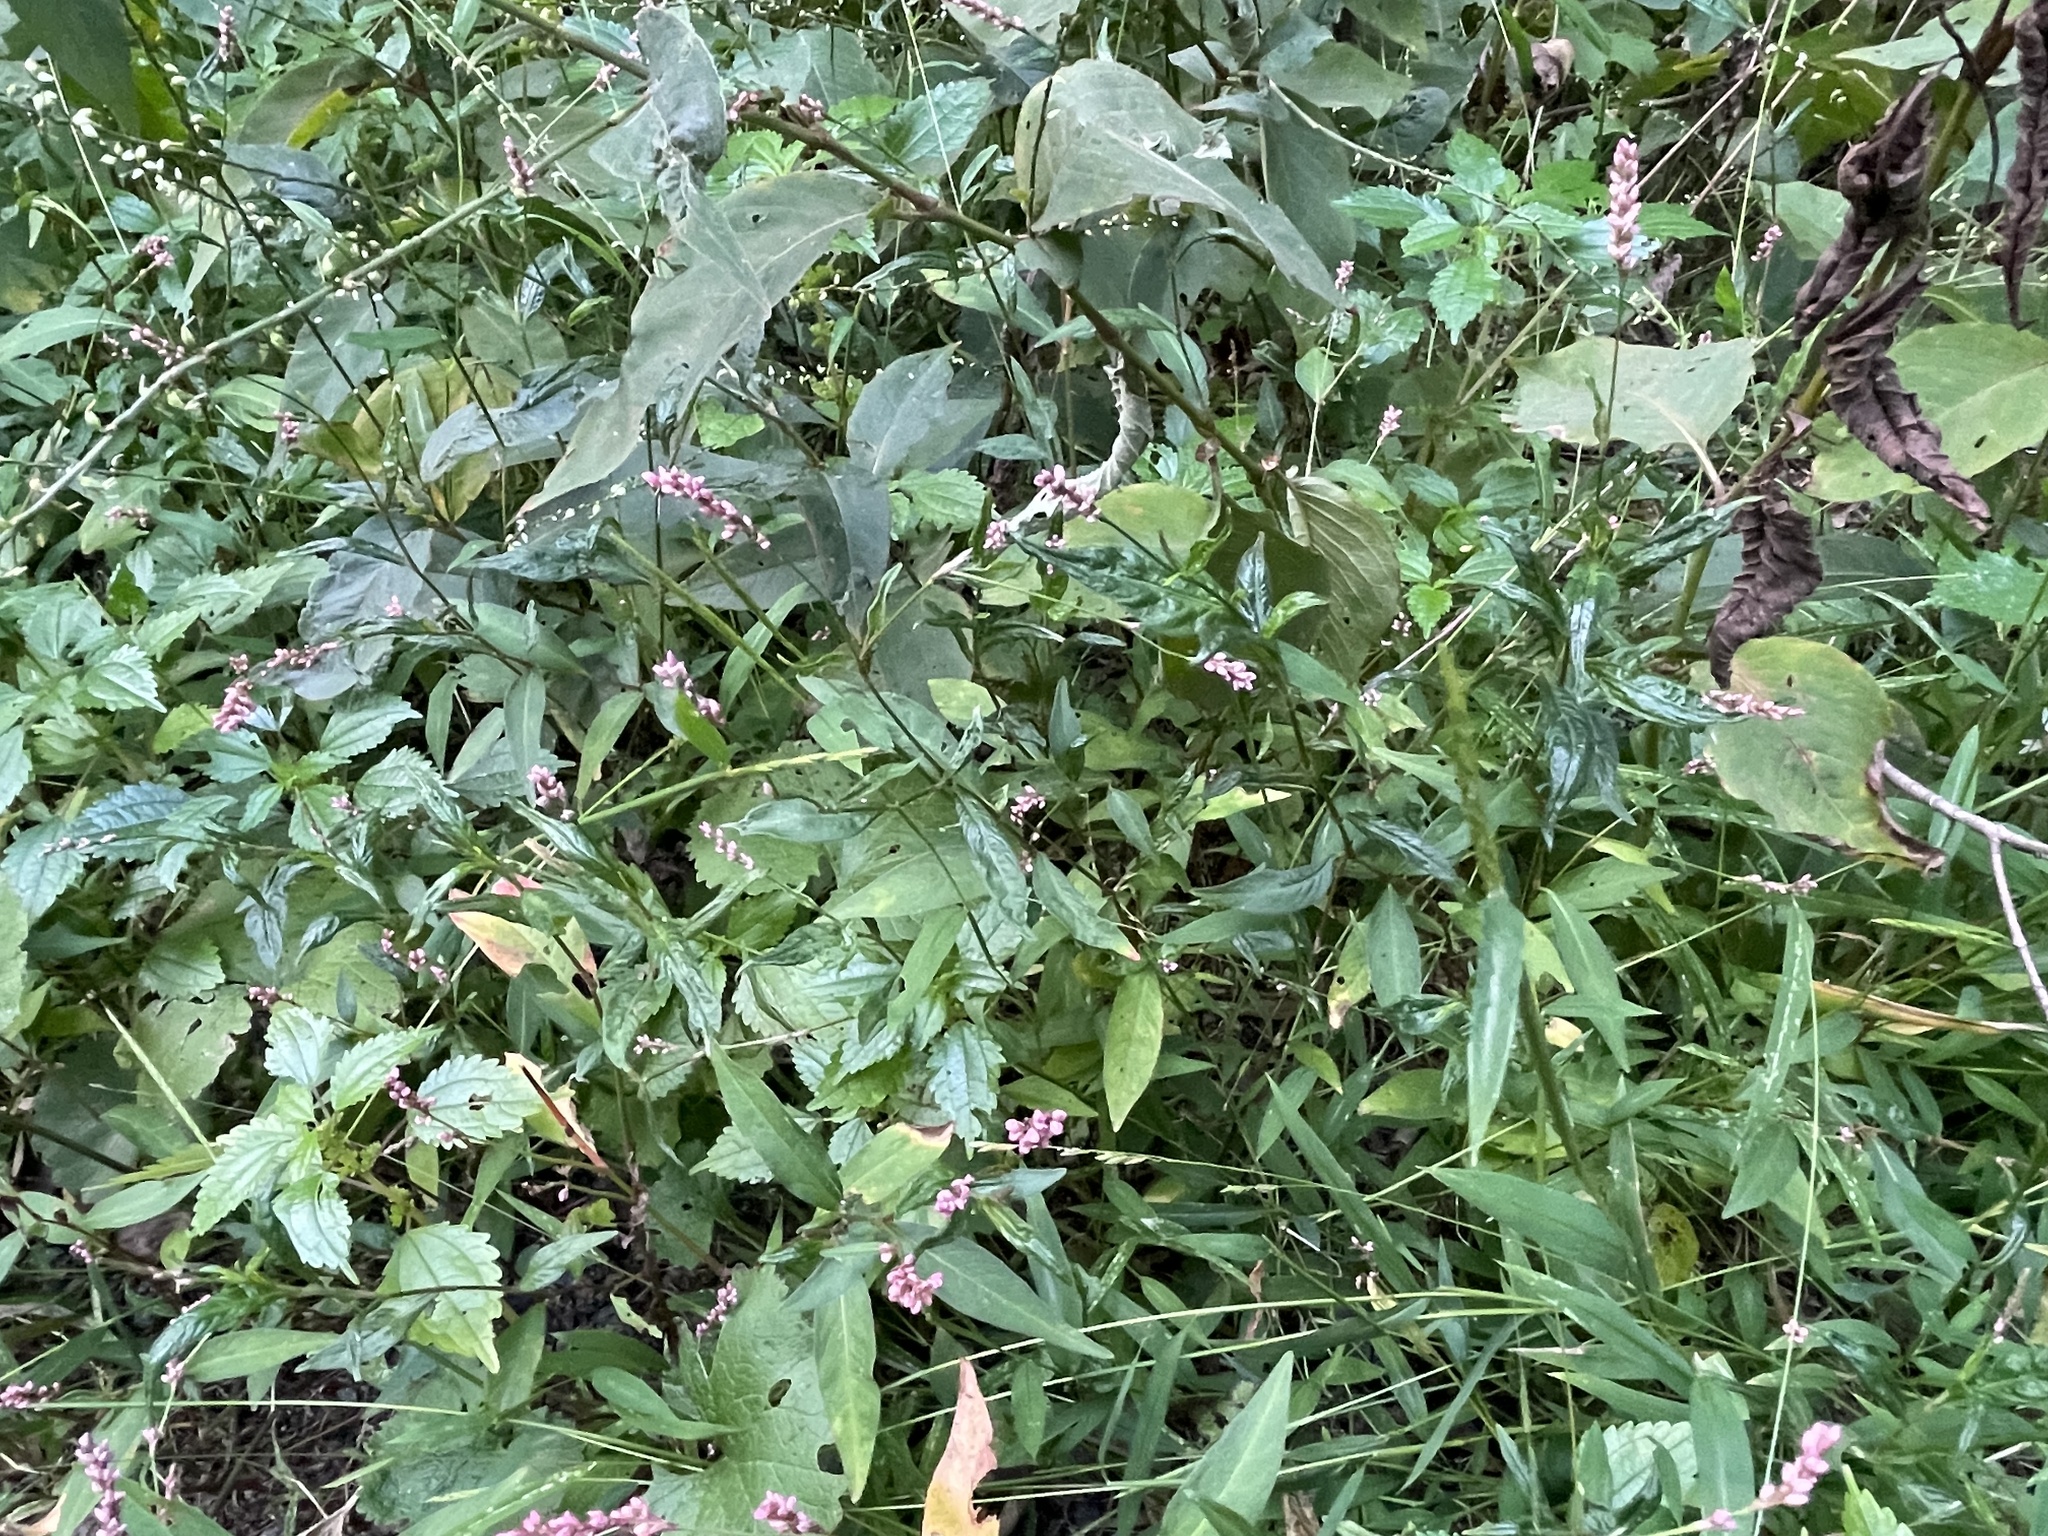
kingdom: Plantae
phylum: Tracheophyta
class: Magnoliopsida
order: Caryophyllales
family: Polygonaceae
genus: Persicaria
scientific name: Persicaria longiseta
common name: Bristly lady's-thumb
